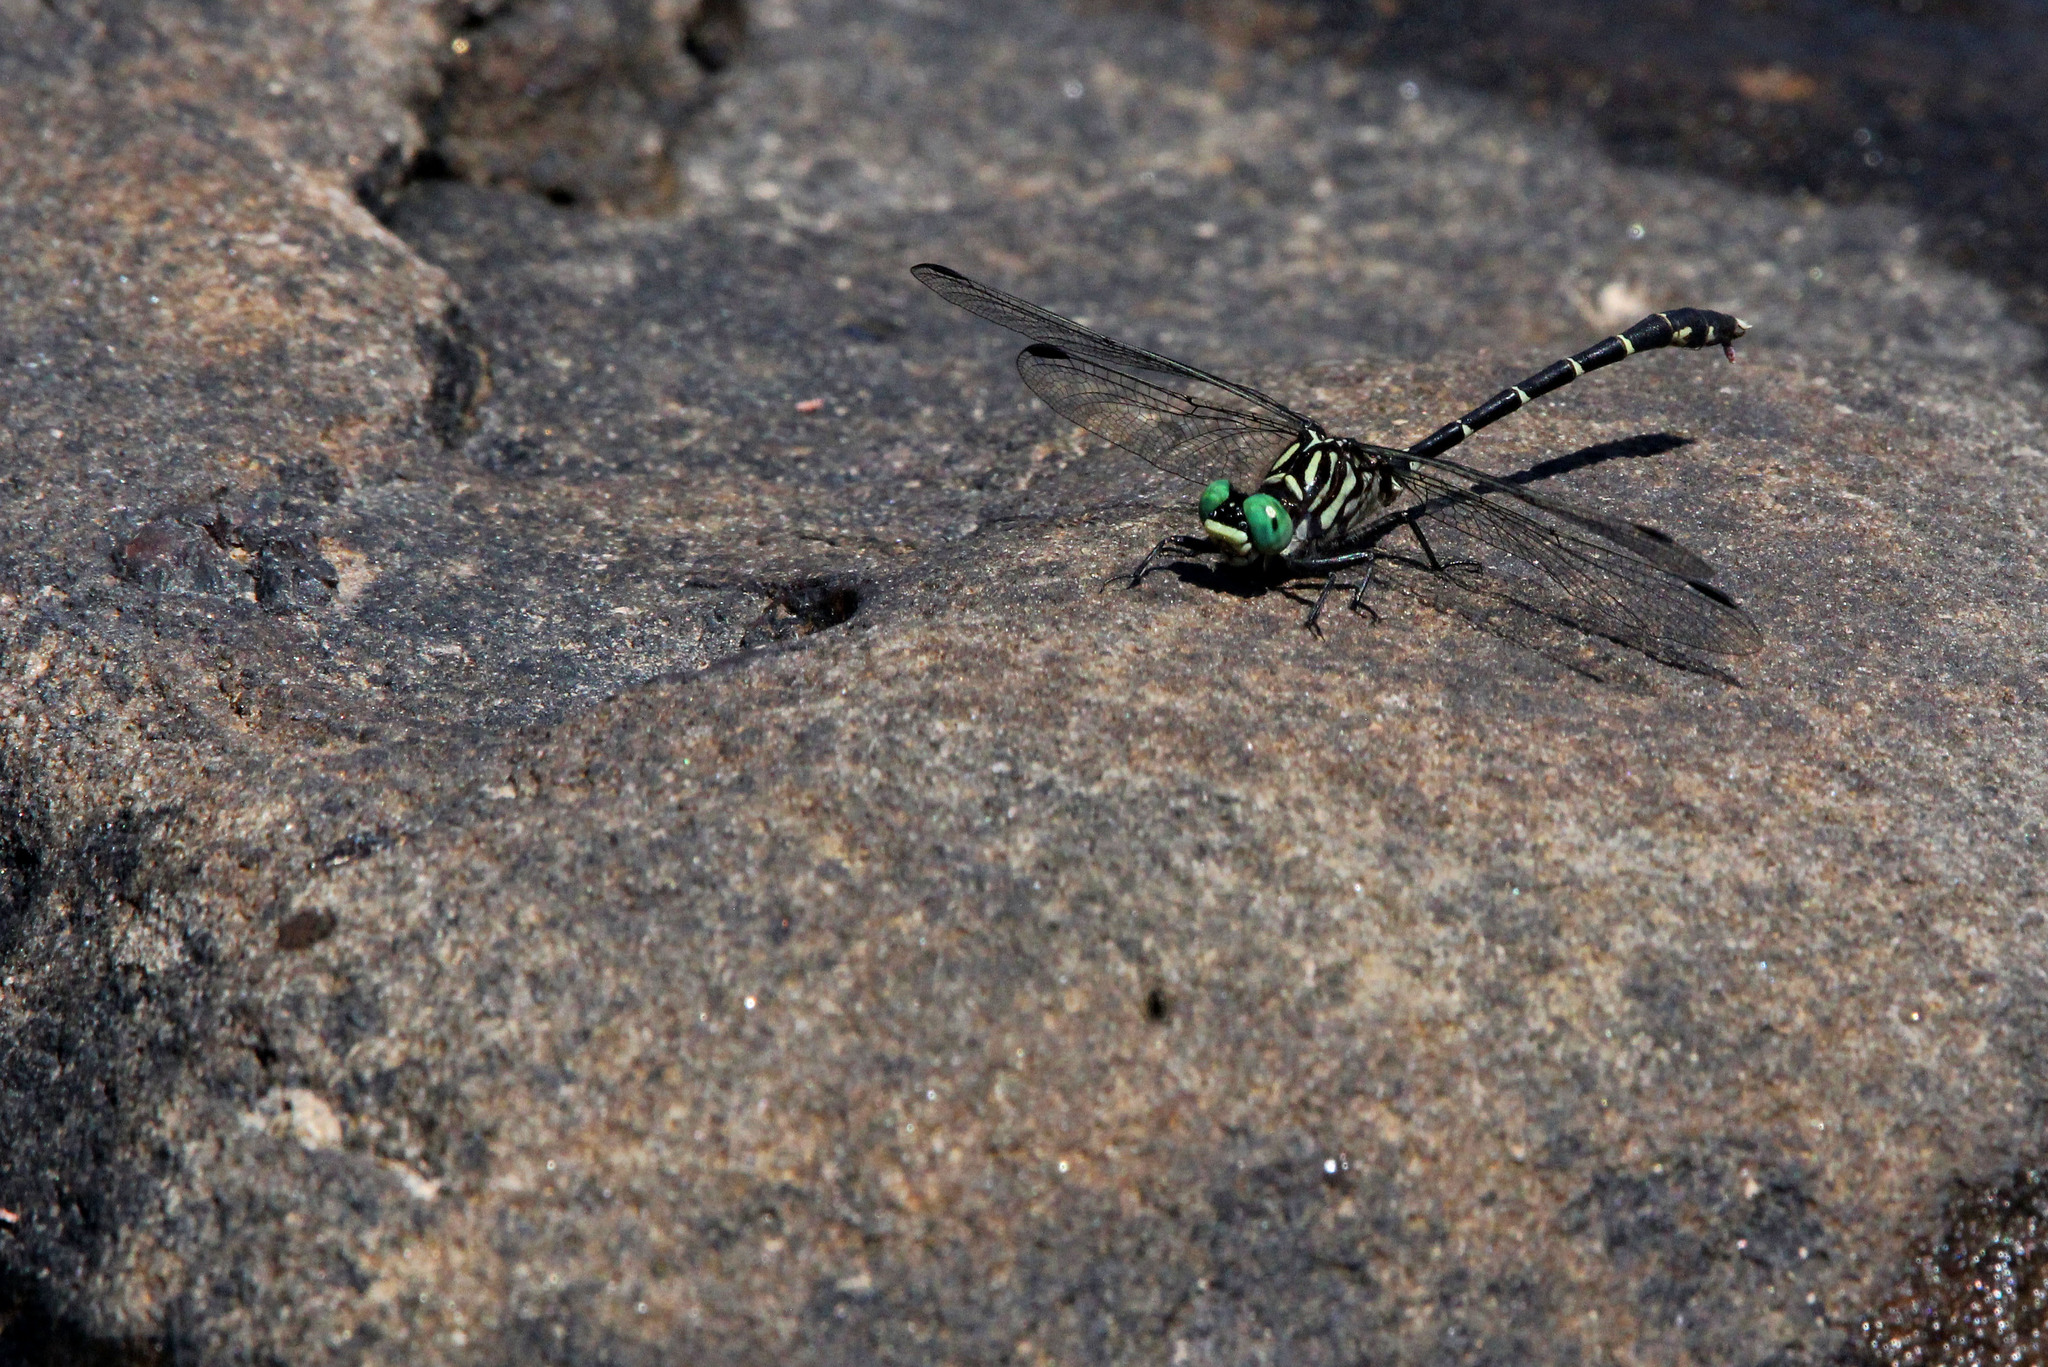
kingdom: Animalia
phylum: Arthropoda
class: Insecta
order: Odonata
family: Gomphidae
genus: Stylogomphus
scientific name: Stylogomphus albistylus
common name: Eastern least clubtail
